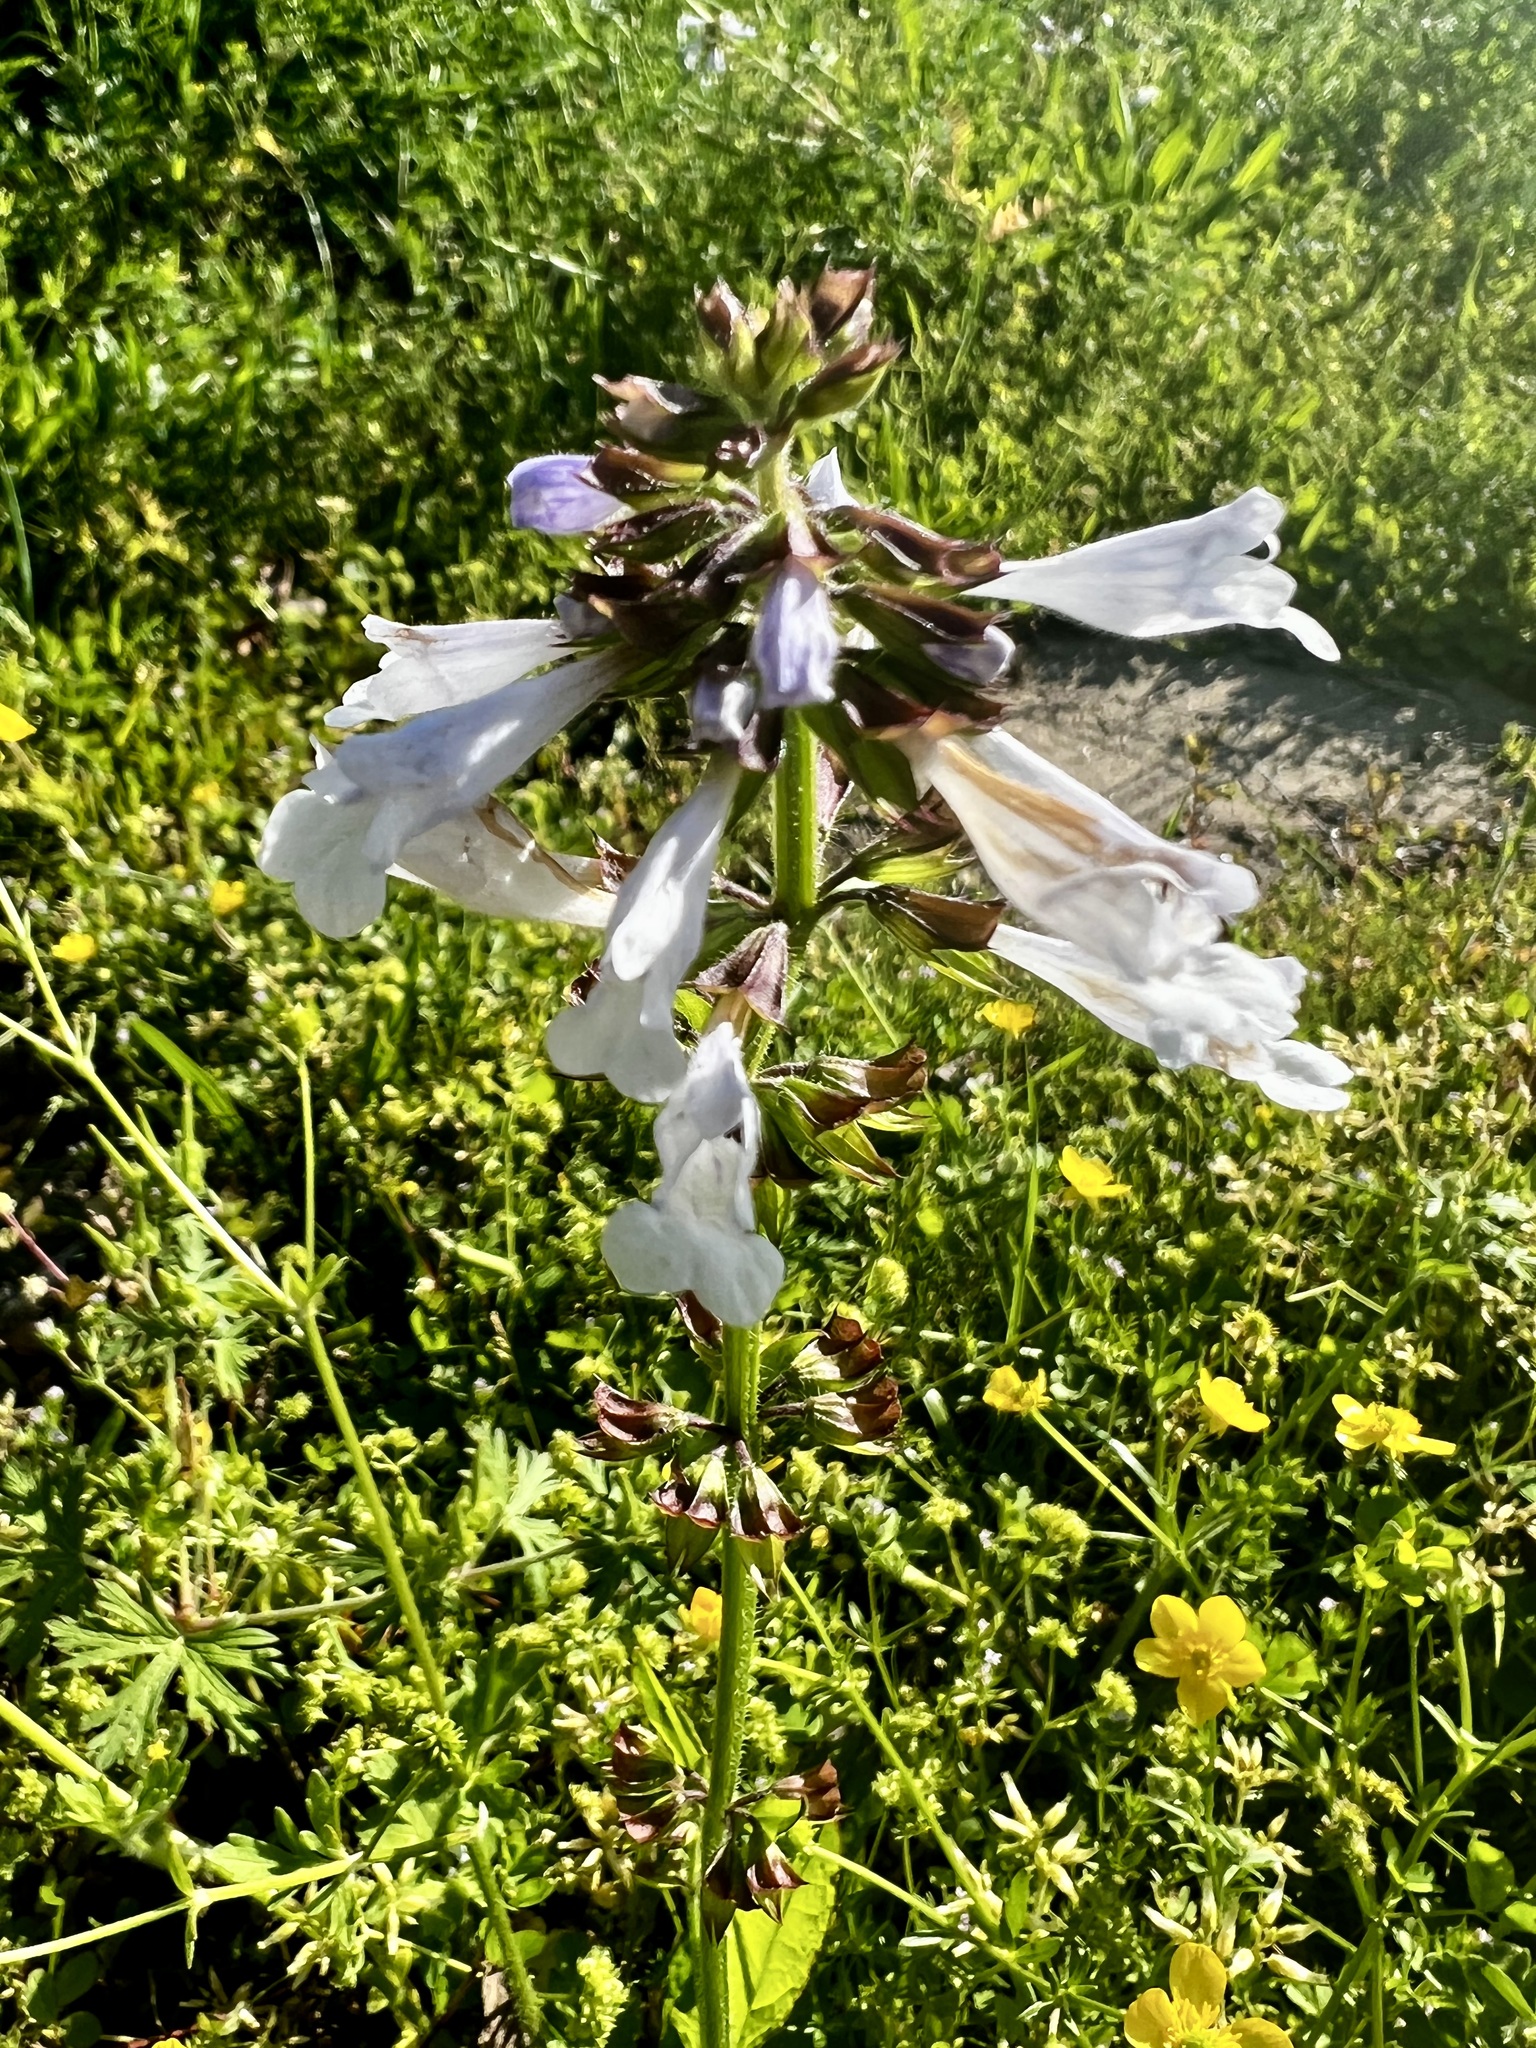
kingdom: Plantae
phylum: Tracheophyta
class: Magnoliopsida
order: Lamiales
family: Lamiaceae
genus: Salvia
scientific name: Salvia lyrata
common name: Cancerweed
